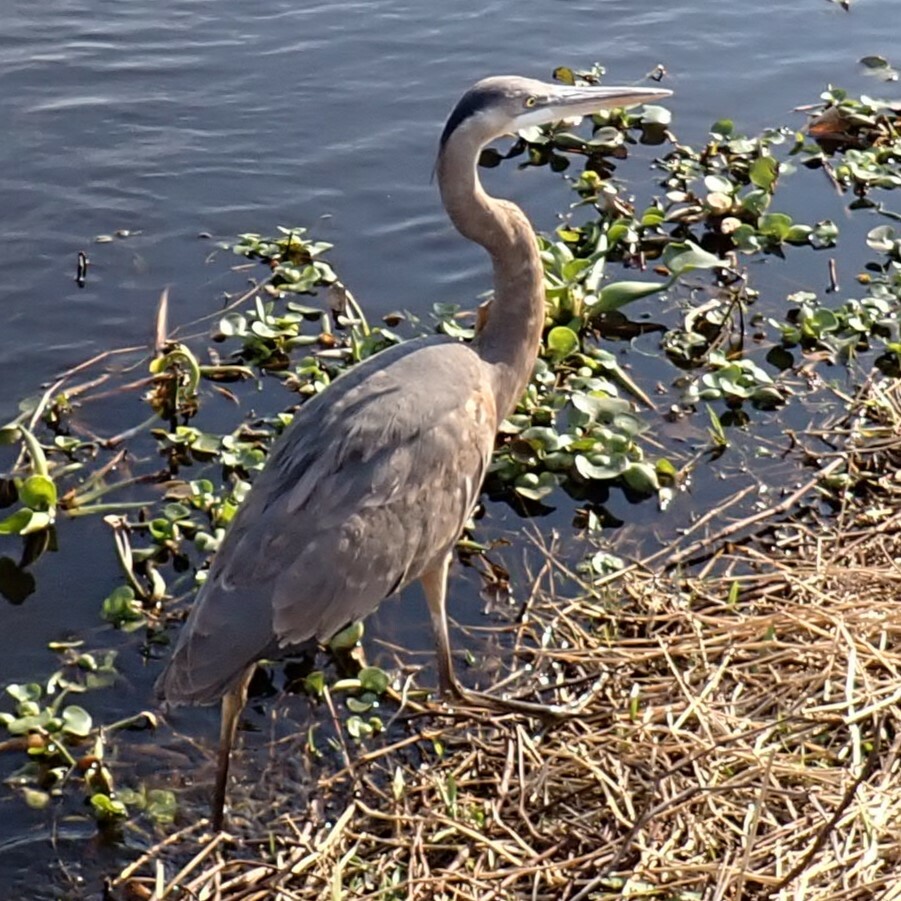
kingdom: Animalia
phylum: Chordata
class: Aves
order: Pelecaniformes
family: Ardeidae
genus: Ardea
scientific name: Ardea herodias
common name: Great blue heron
